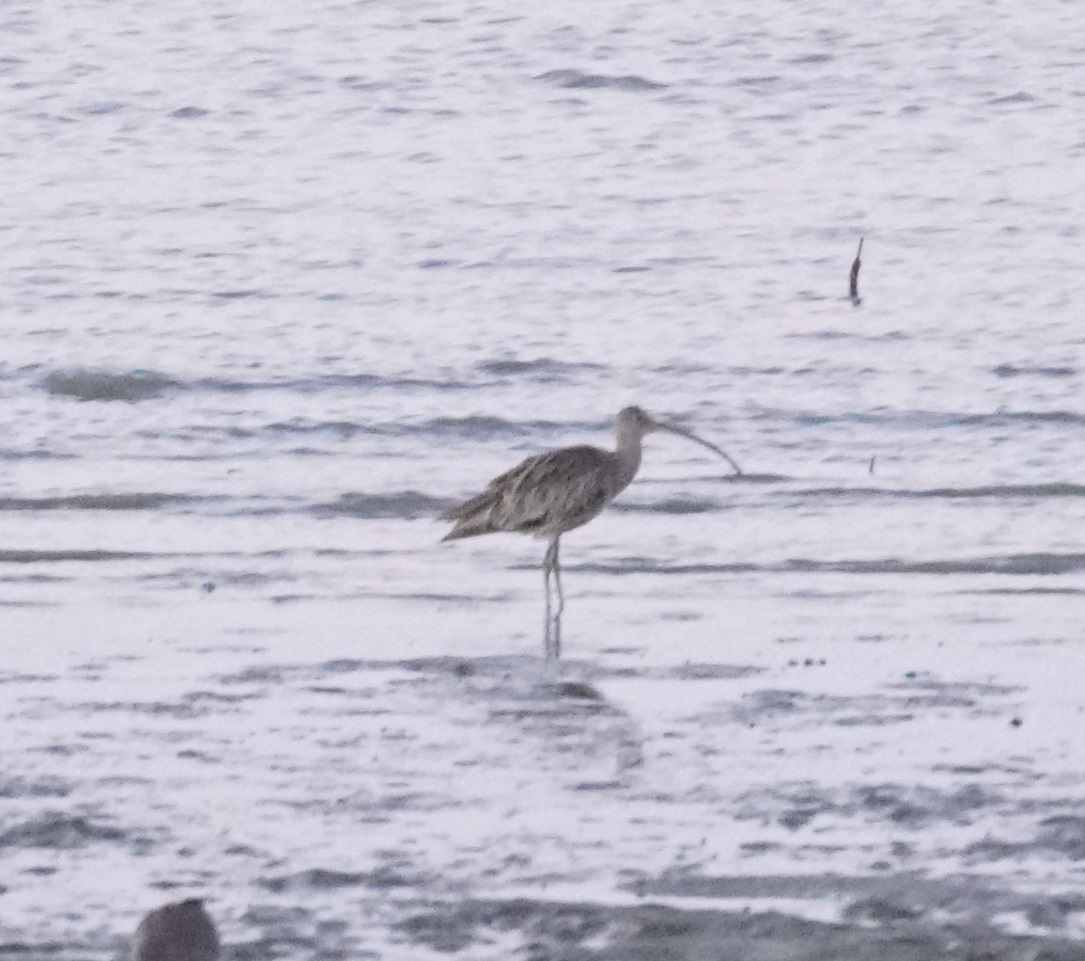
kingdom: Animalia
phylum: Chordata
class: Aves
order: Charadriiformes
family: Scolopacidae
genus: Numenius
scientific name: Numenius madagascariensis
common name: Far eastern curlew
